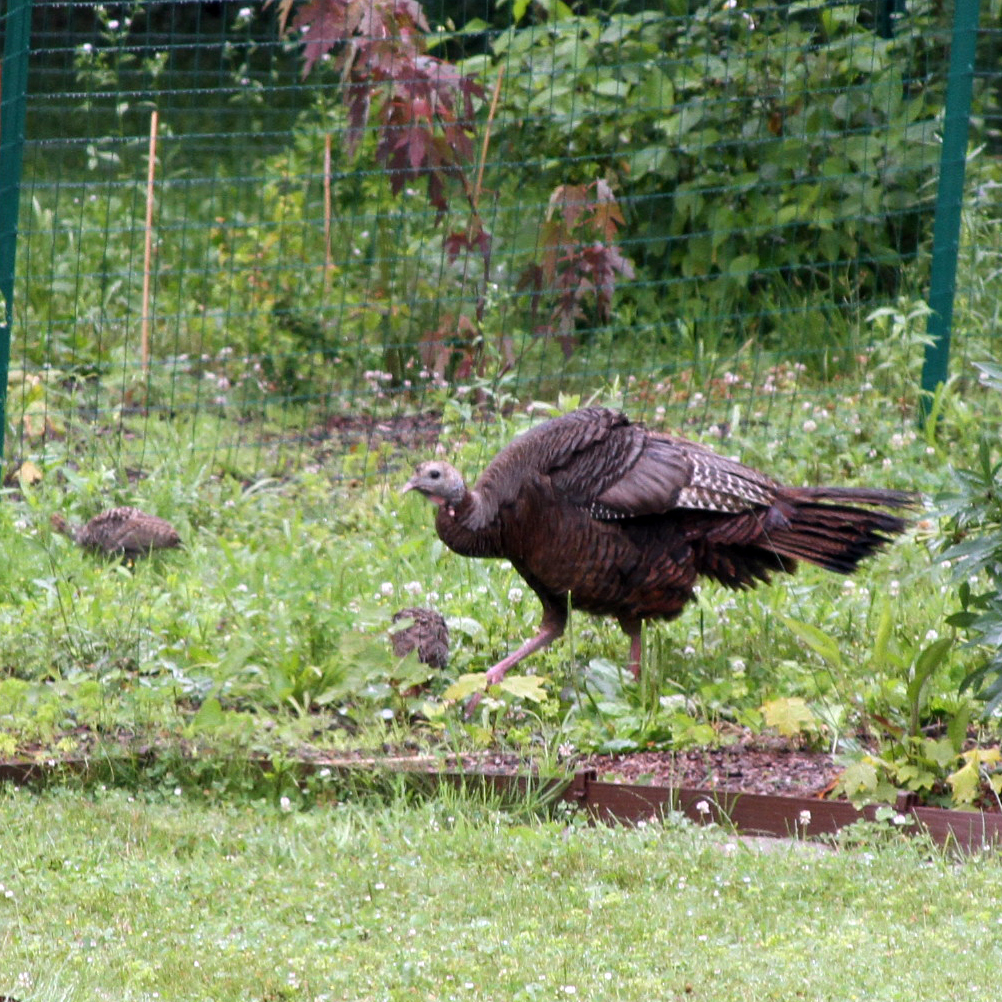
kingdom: Animalia
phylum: Chordata
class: Aves
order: Galliformes
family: Phasianidae
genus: Meleagris
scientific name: Meleagris gallopavo
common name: Wild turkey
